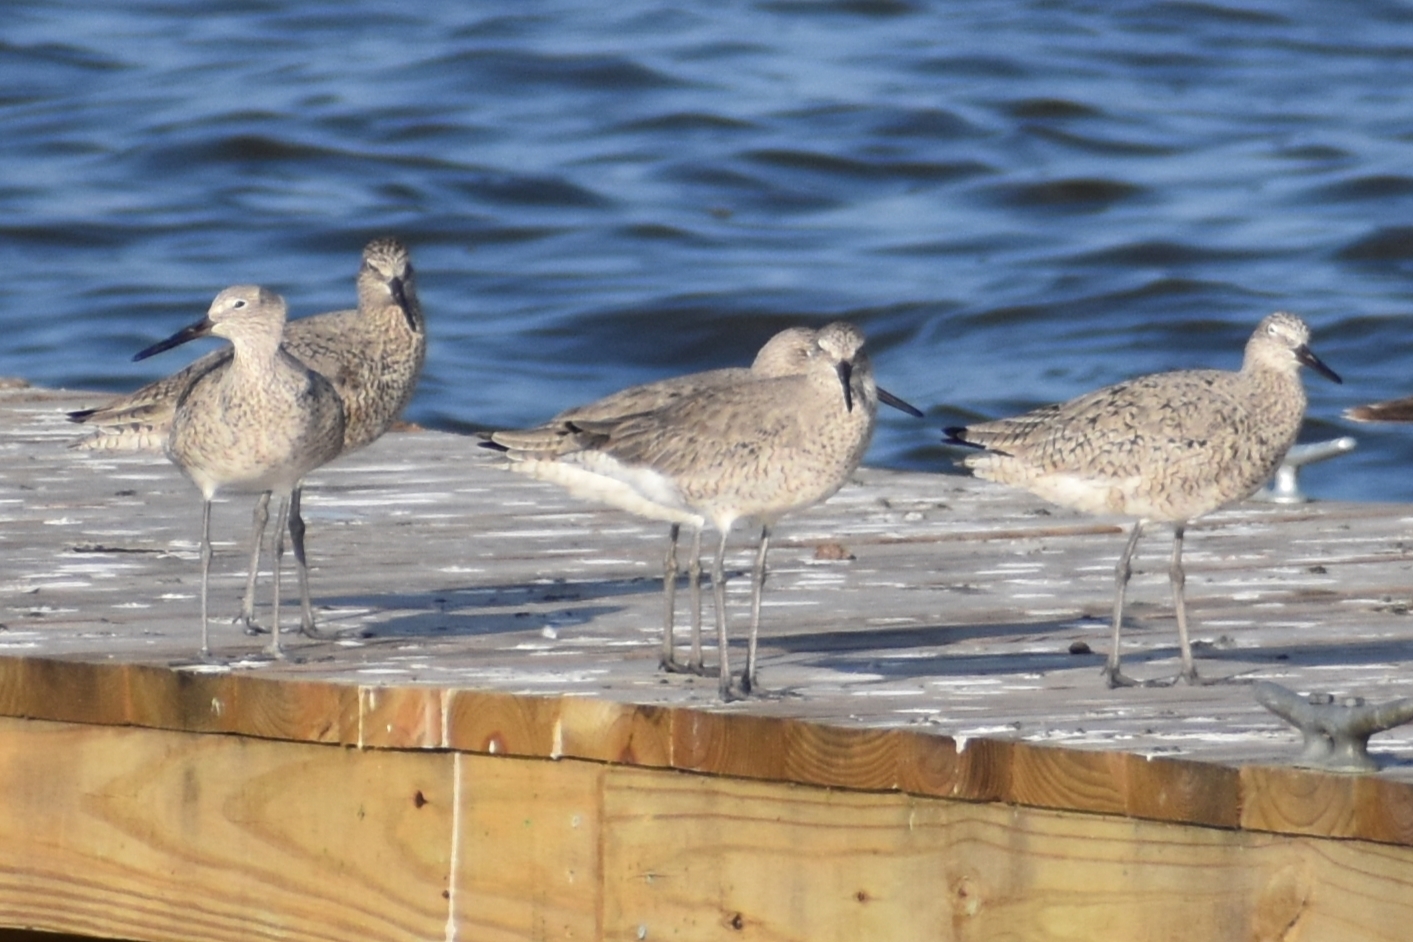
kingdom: Animalia
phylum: Chordata
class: Aves
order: Charadriiformes
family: Scolopacidae
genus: Tringa
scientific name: Tringa semipalmata
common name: Willet
